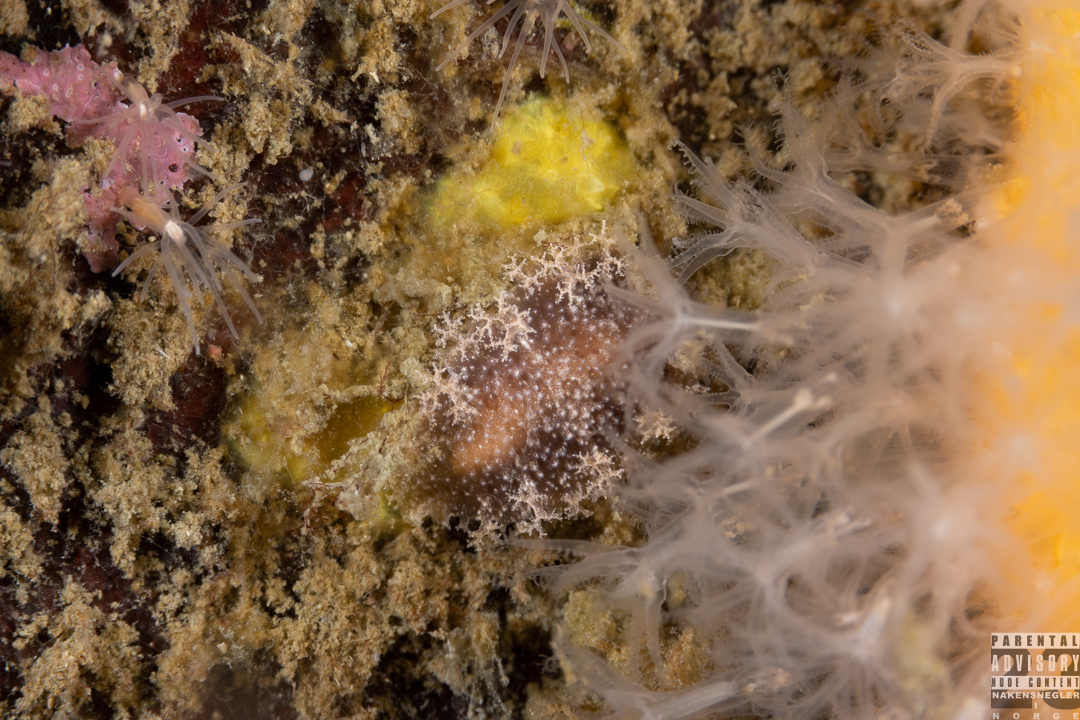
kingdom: Animalia
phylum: Mollusca
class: Gastropoda
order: Nudibranchia
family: Tritoniidae
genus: Tritonia
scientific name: Tritonia hombergii
